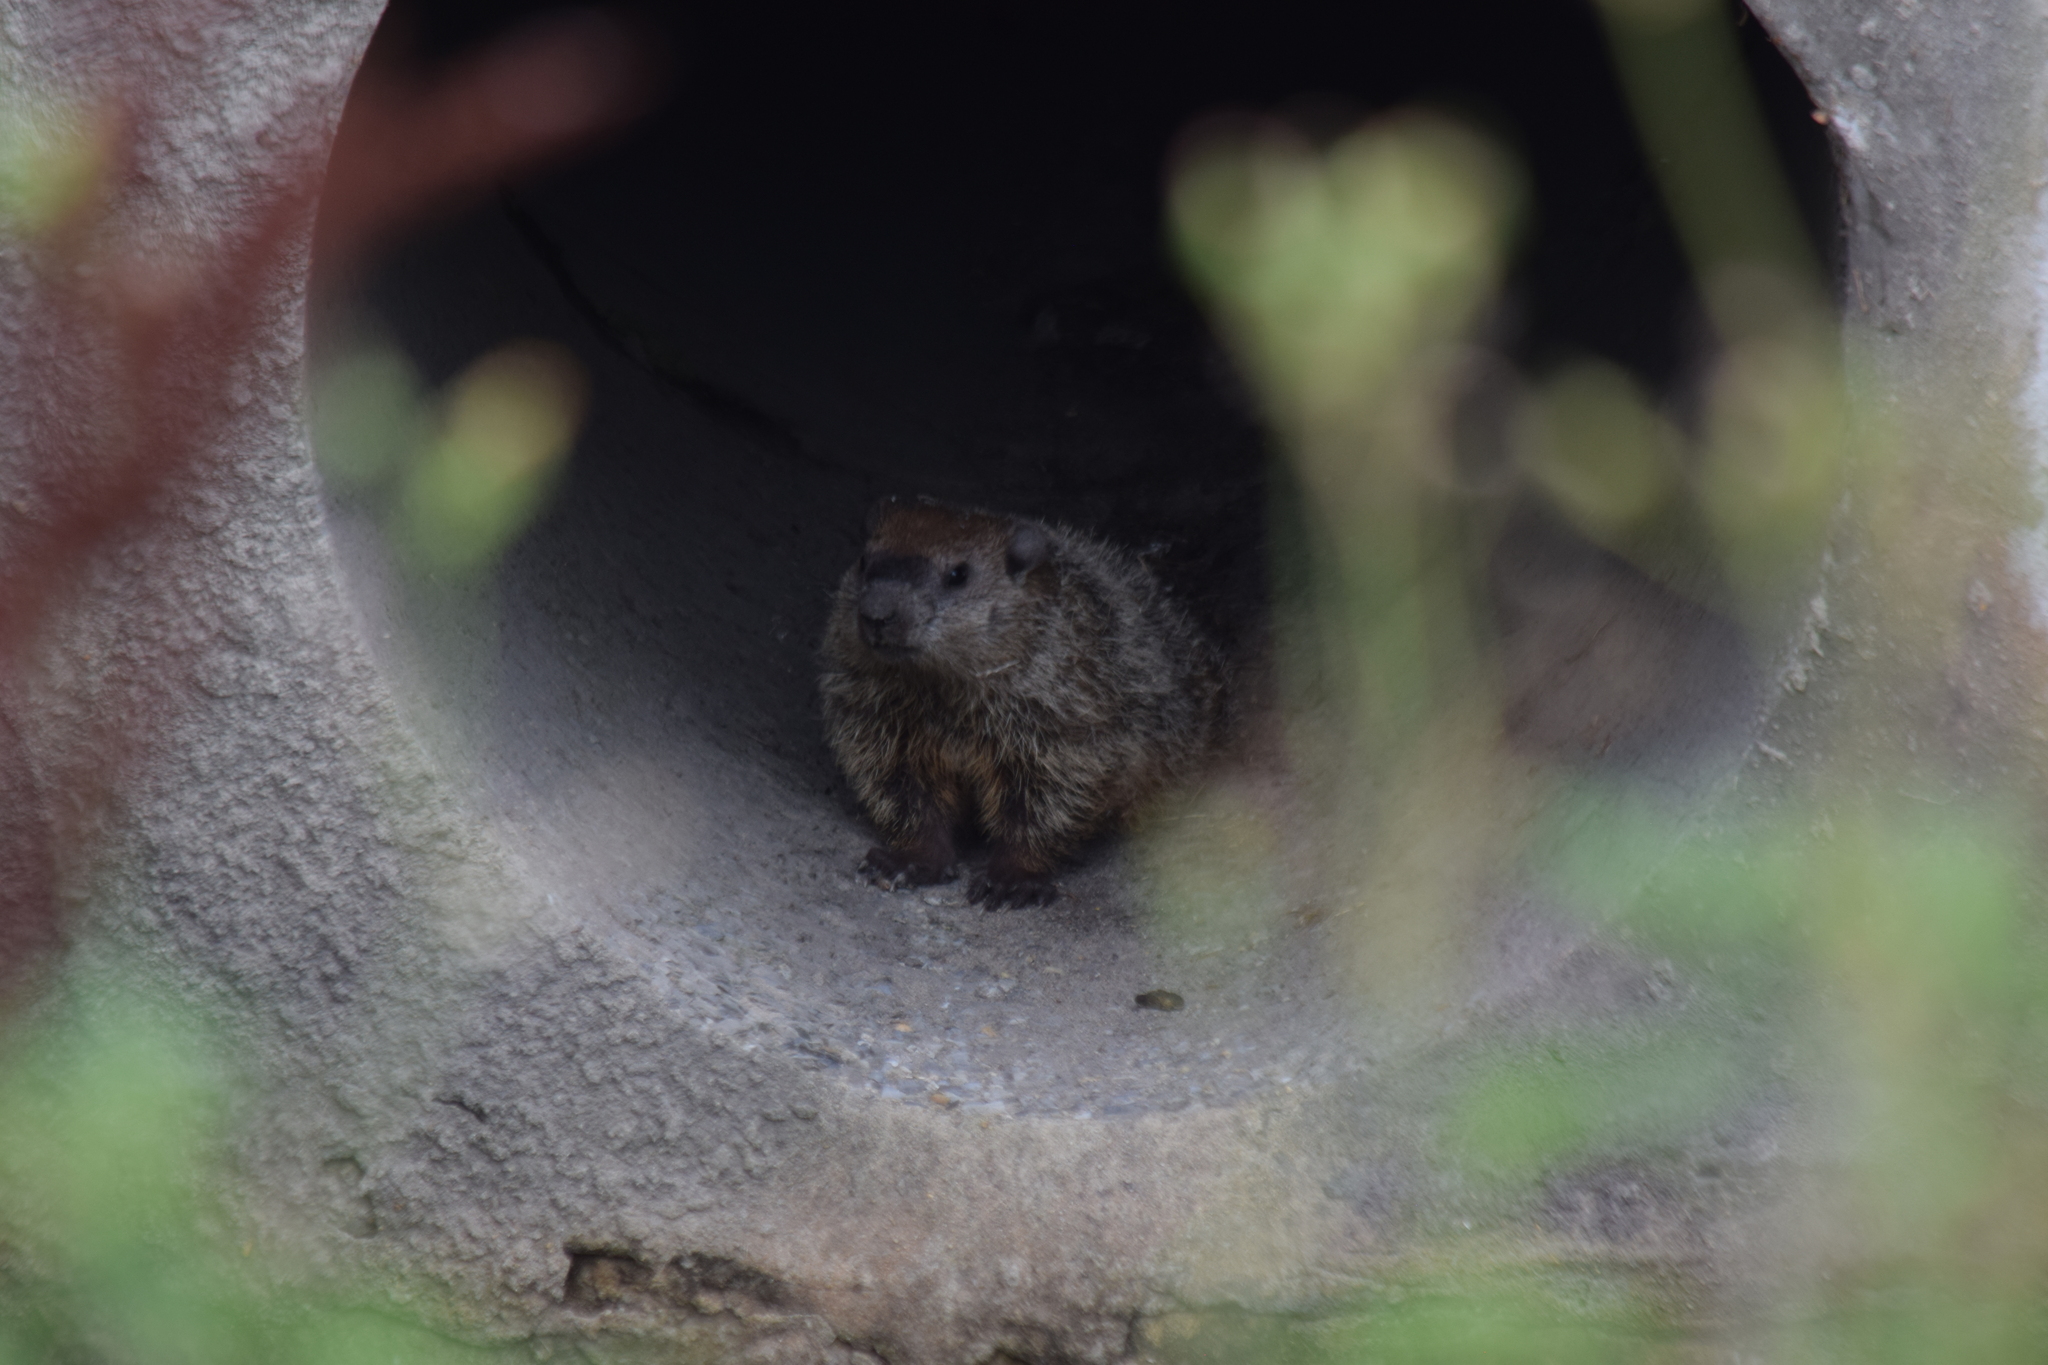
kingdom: Animalia
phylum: Chordata
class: Mammalia
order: Rodentia
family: Sciuridae
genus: Marmota
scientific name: Marmota monax
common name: Groundhog
